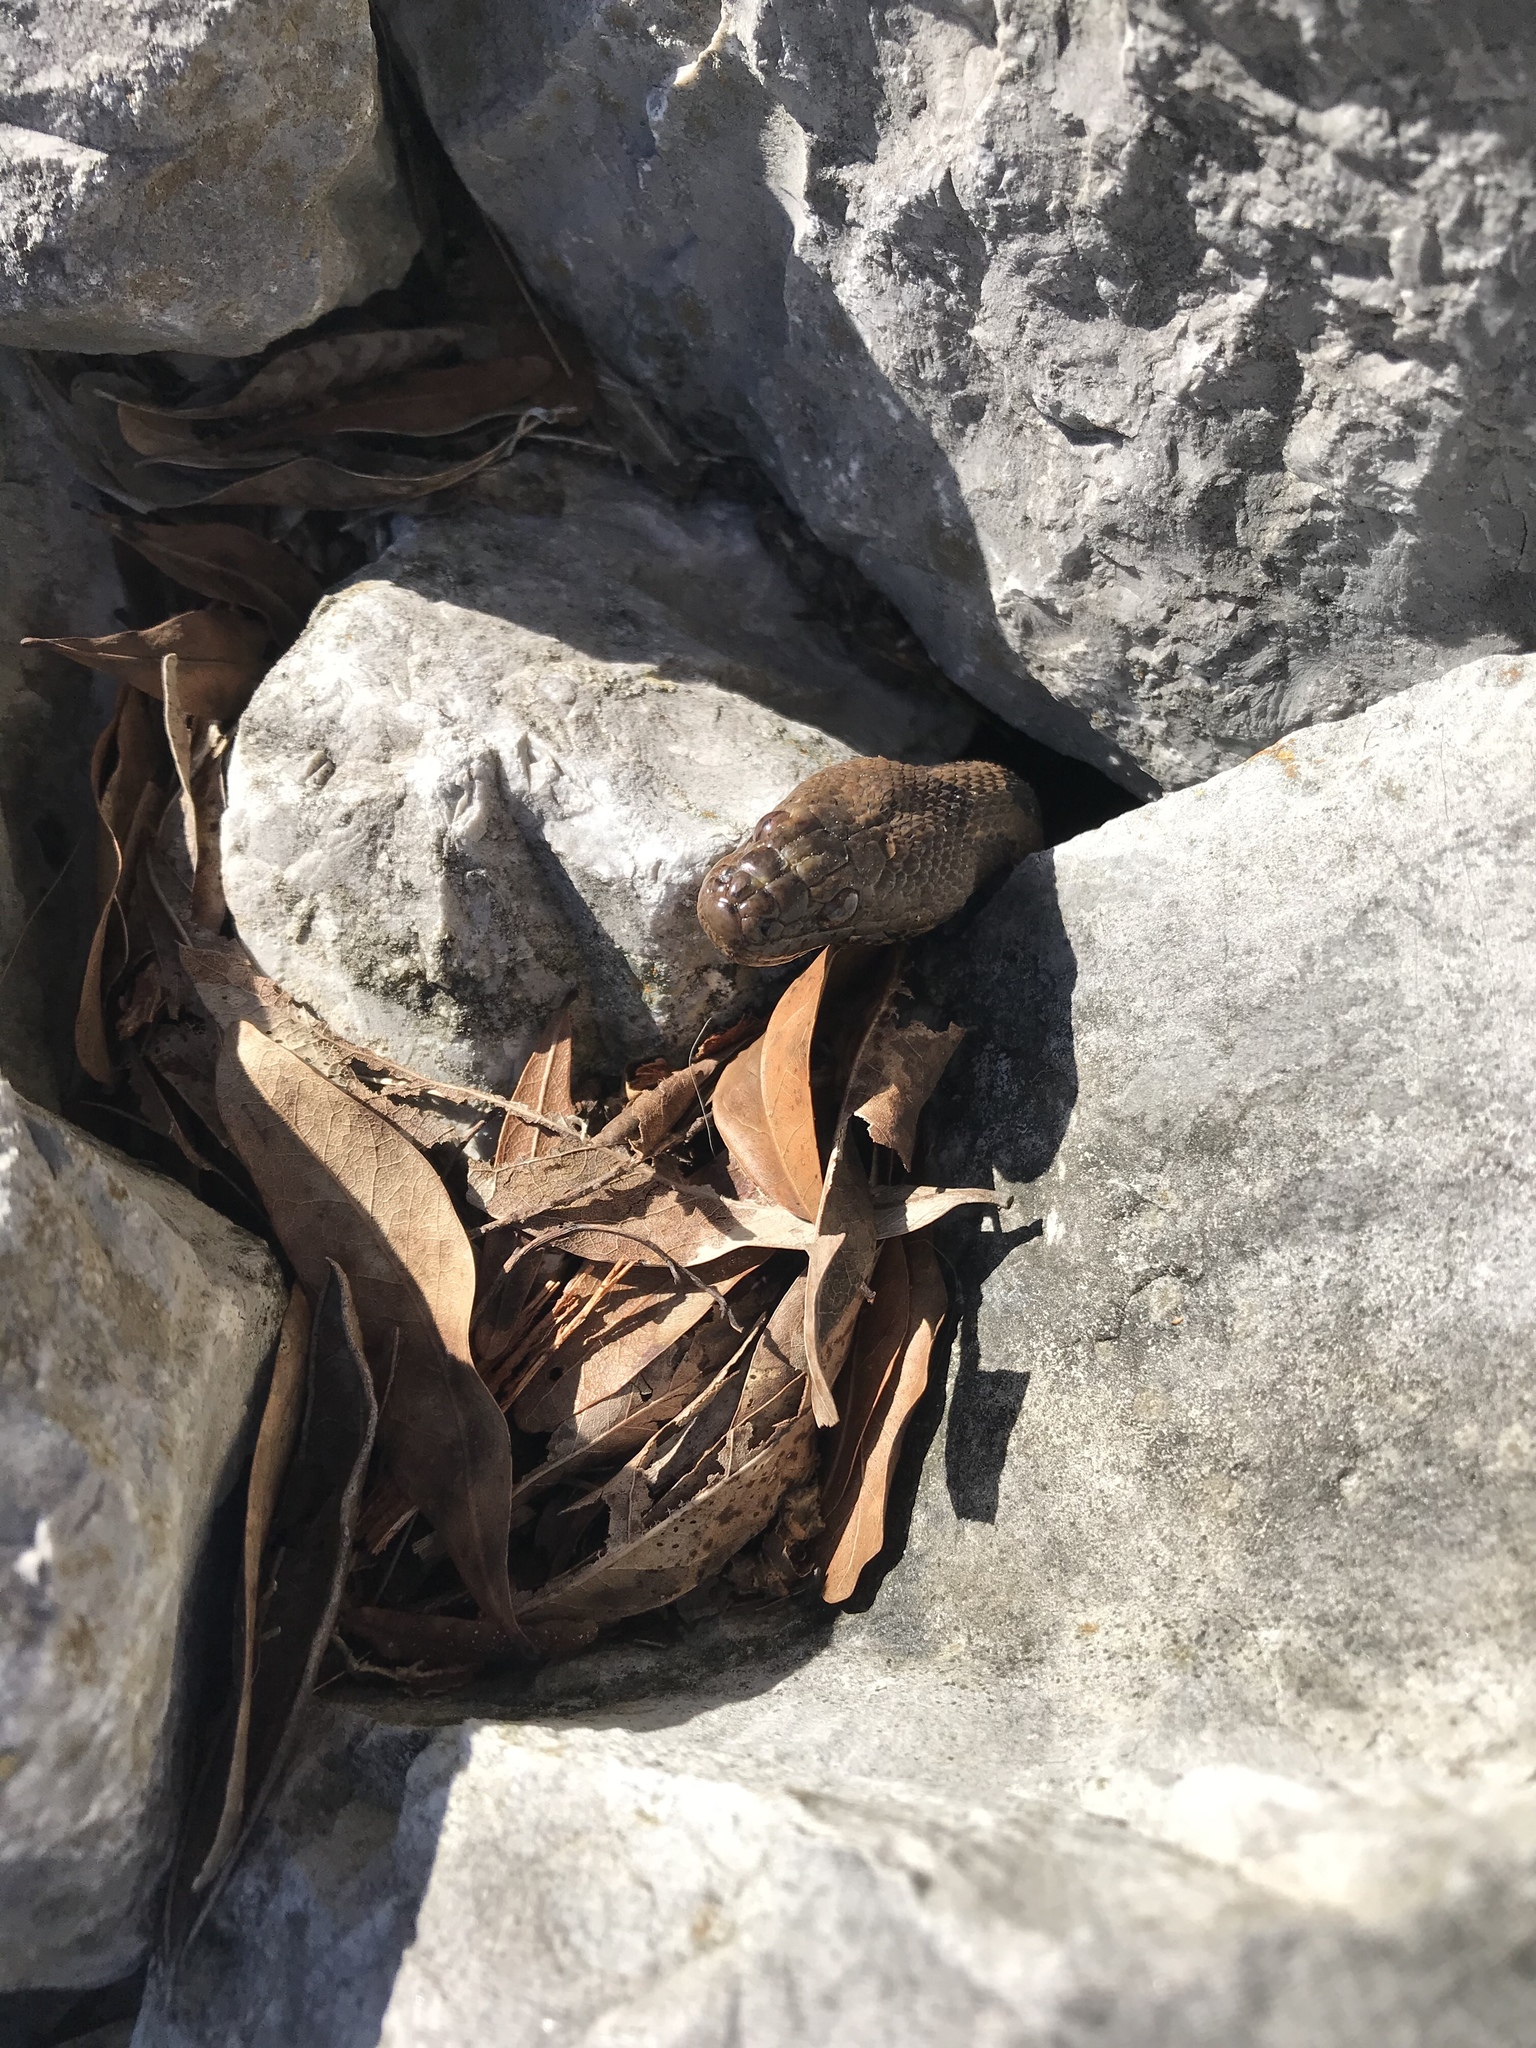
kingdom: Animalia
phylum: Chordata
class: Squamata
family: Colubridae
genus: Nerodia
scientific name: Nerodia taxispilota
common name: Brown water snake
